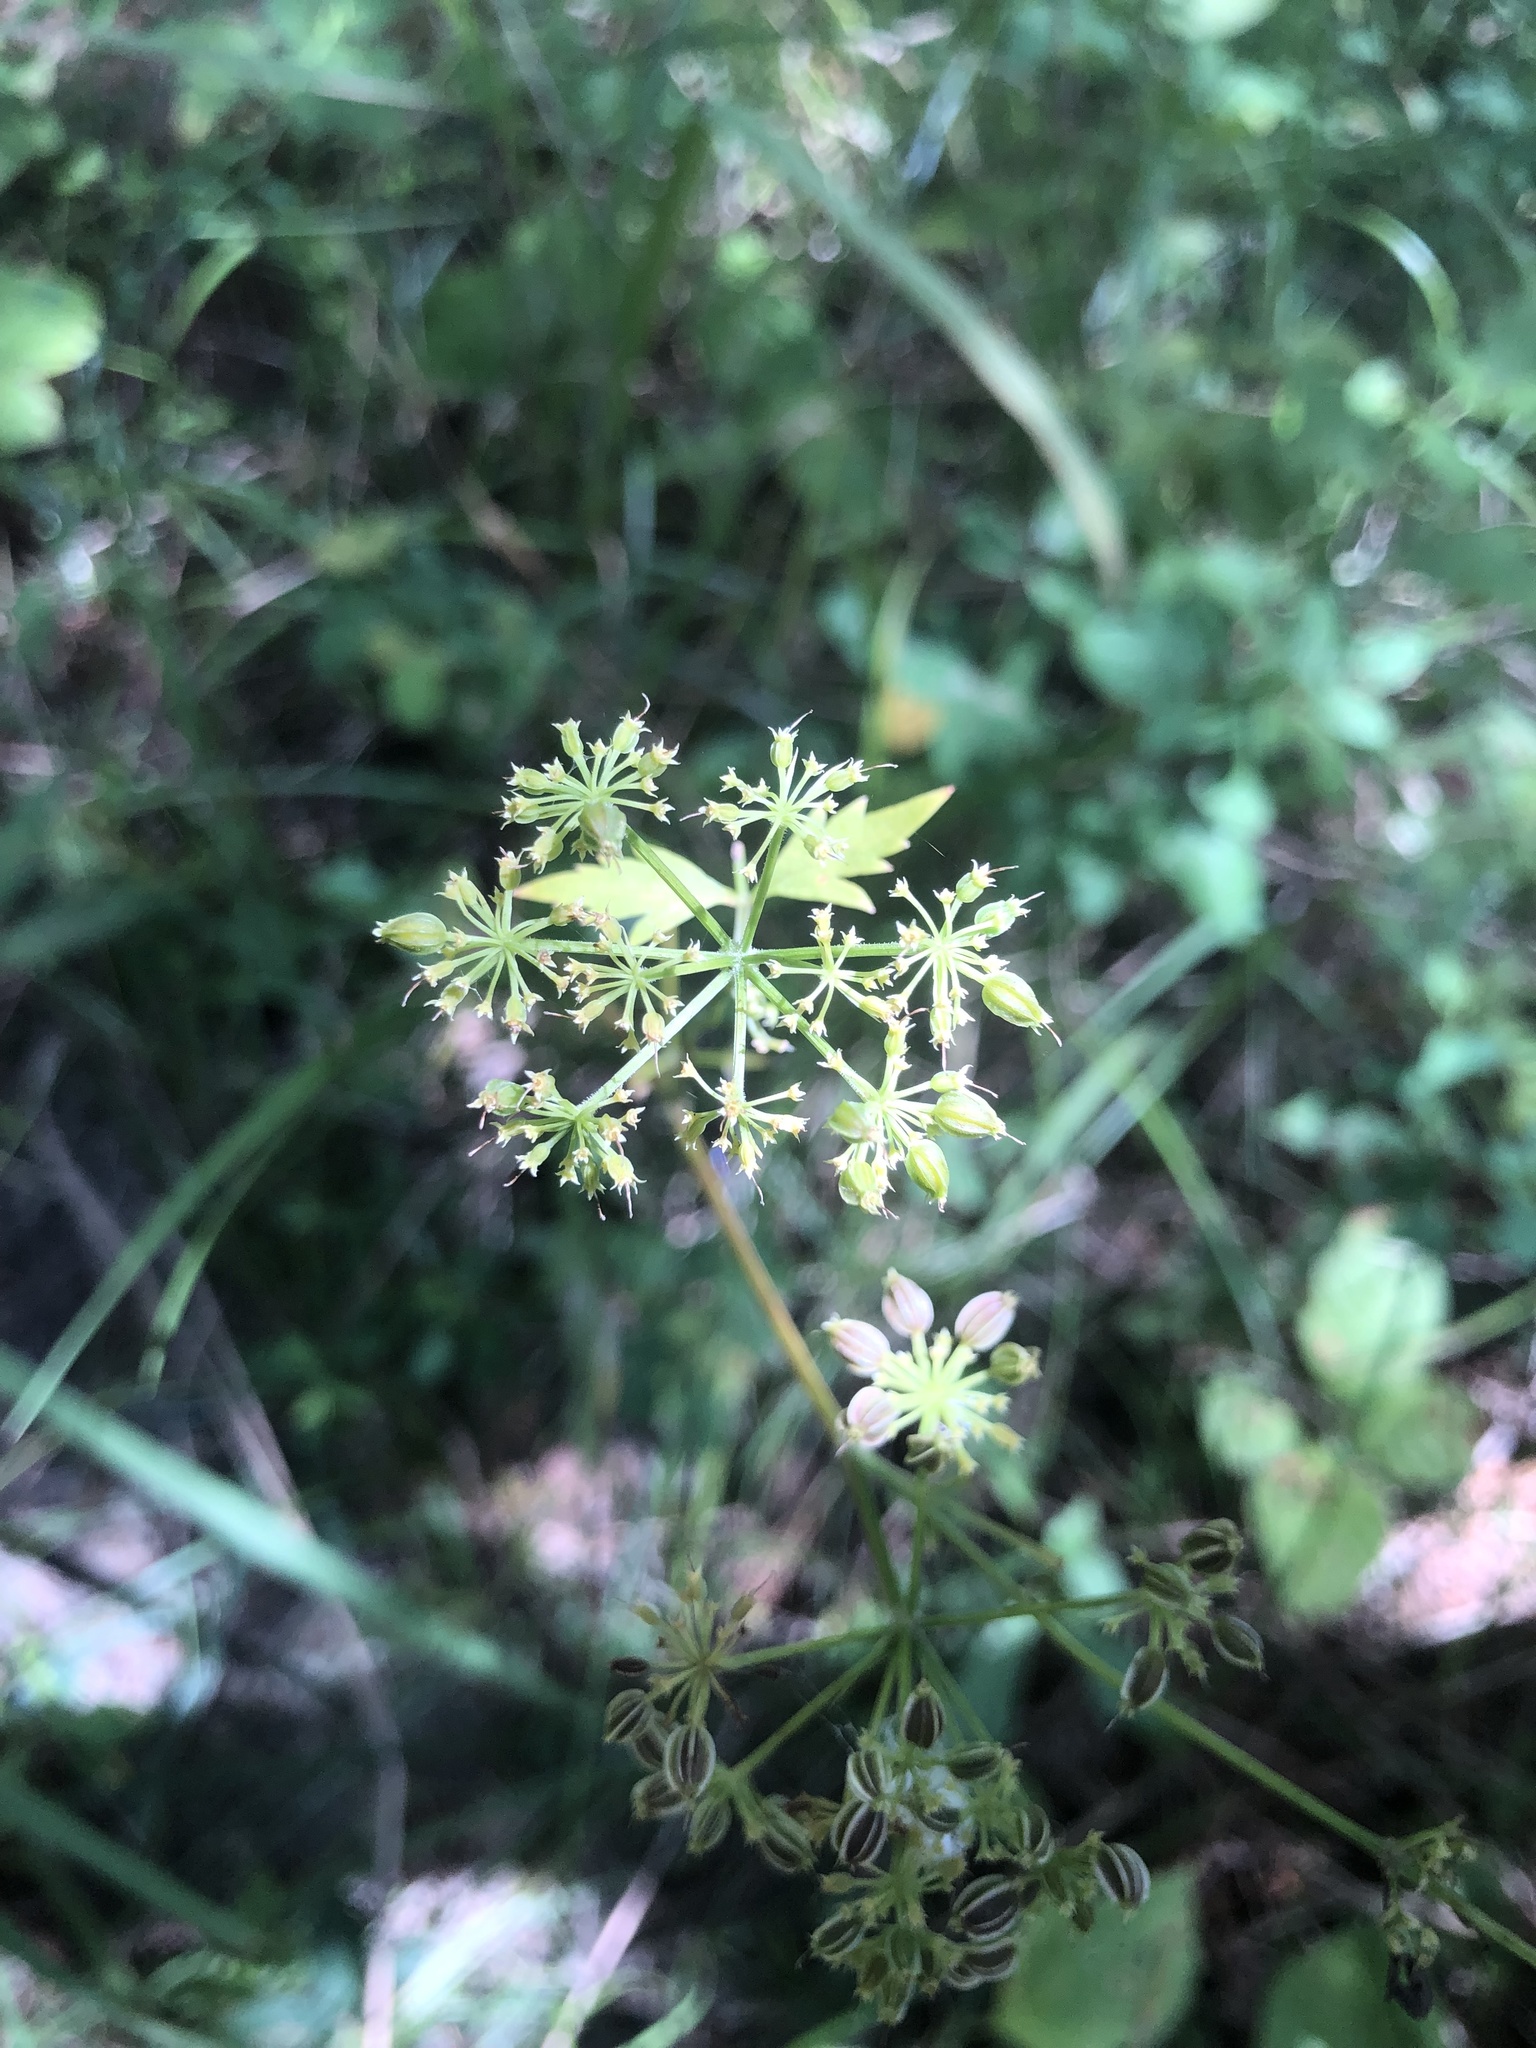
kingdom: Plantae
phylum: Tracheophyta
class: Magnoliopsida
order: Apiales
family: Apiaceae
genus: Thaspium
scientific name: Thaspium barbinode
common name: Bearded meadow-parsnip
